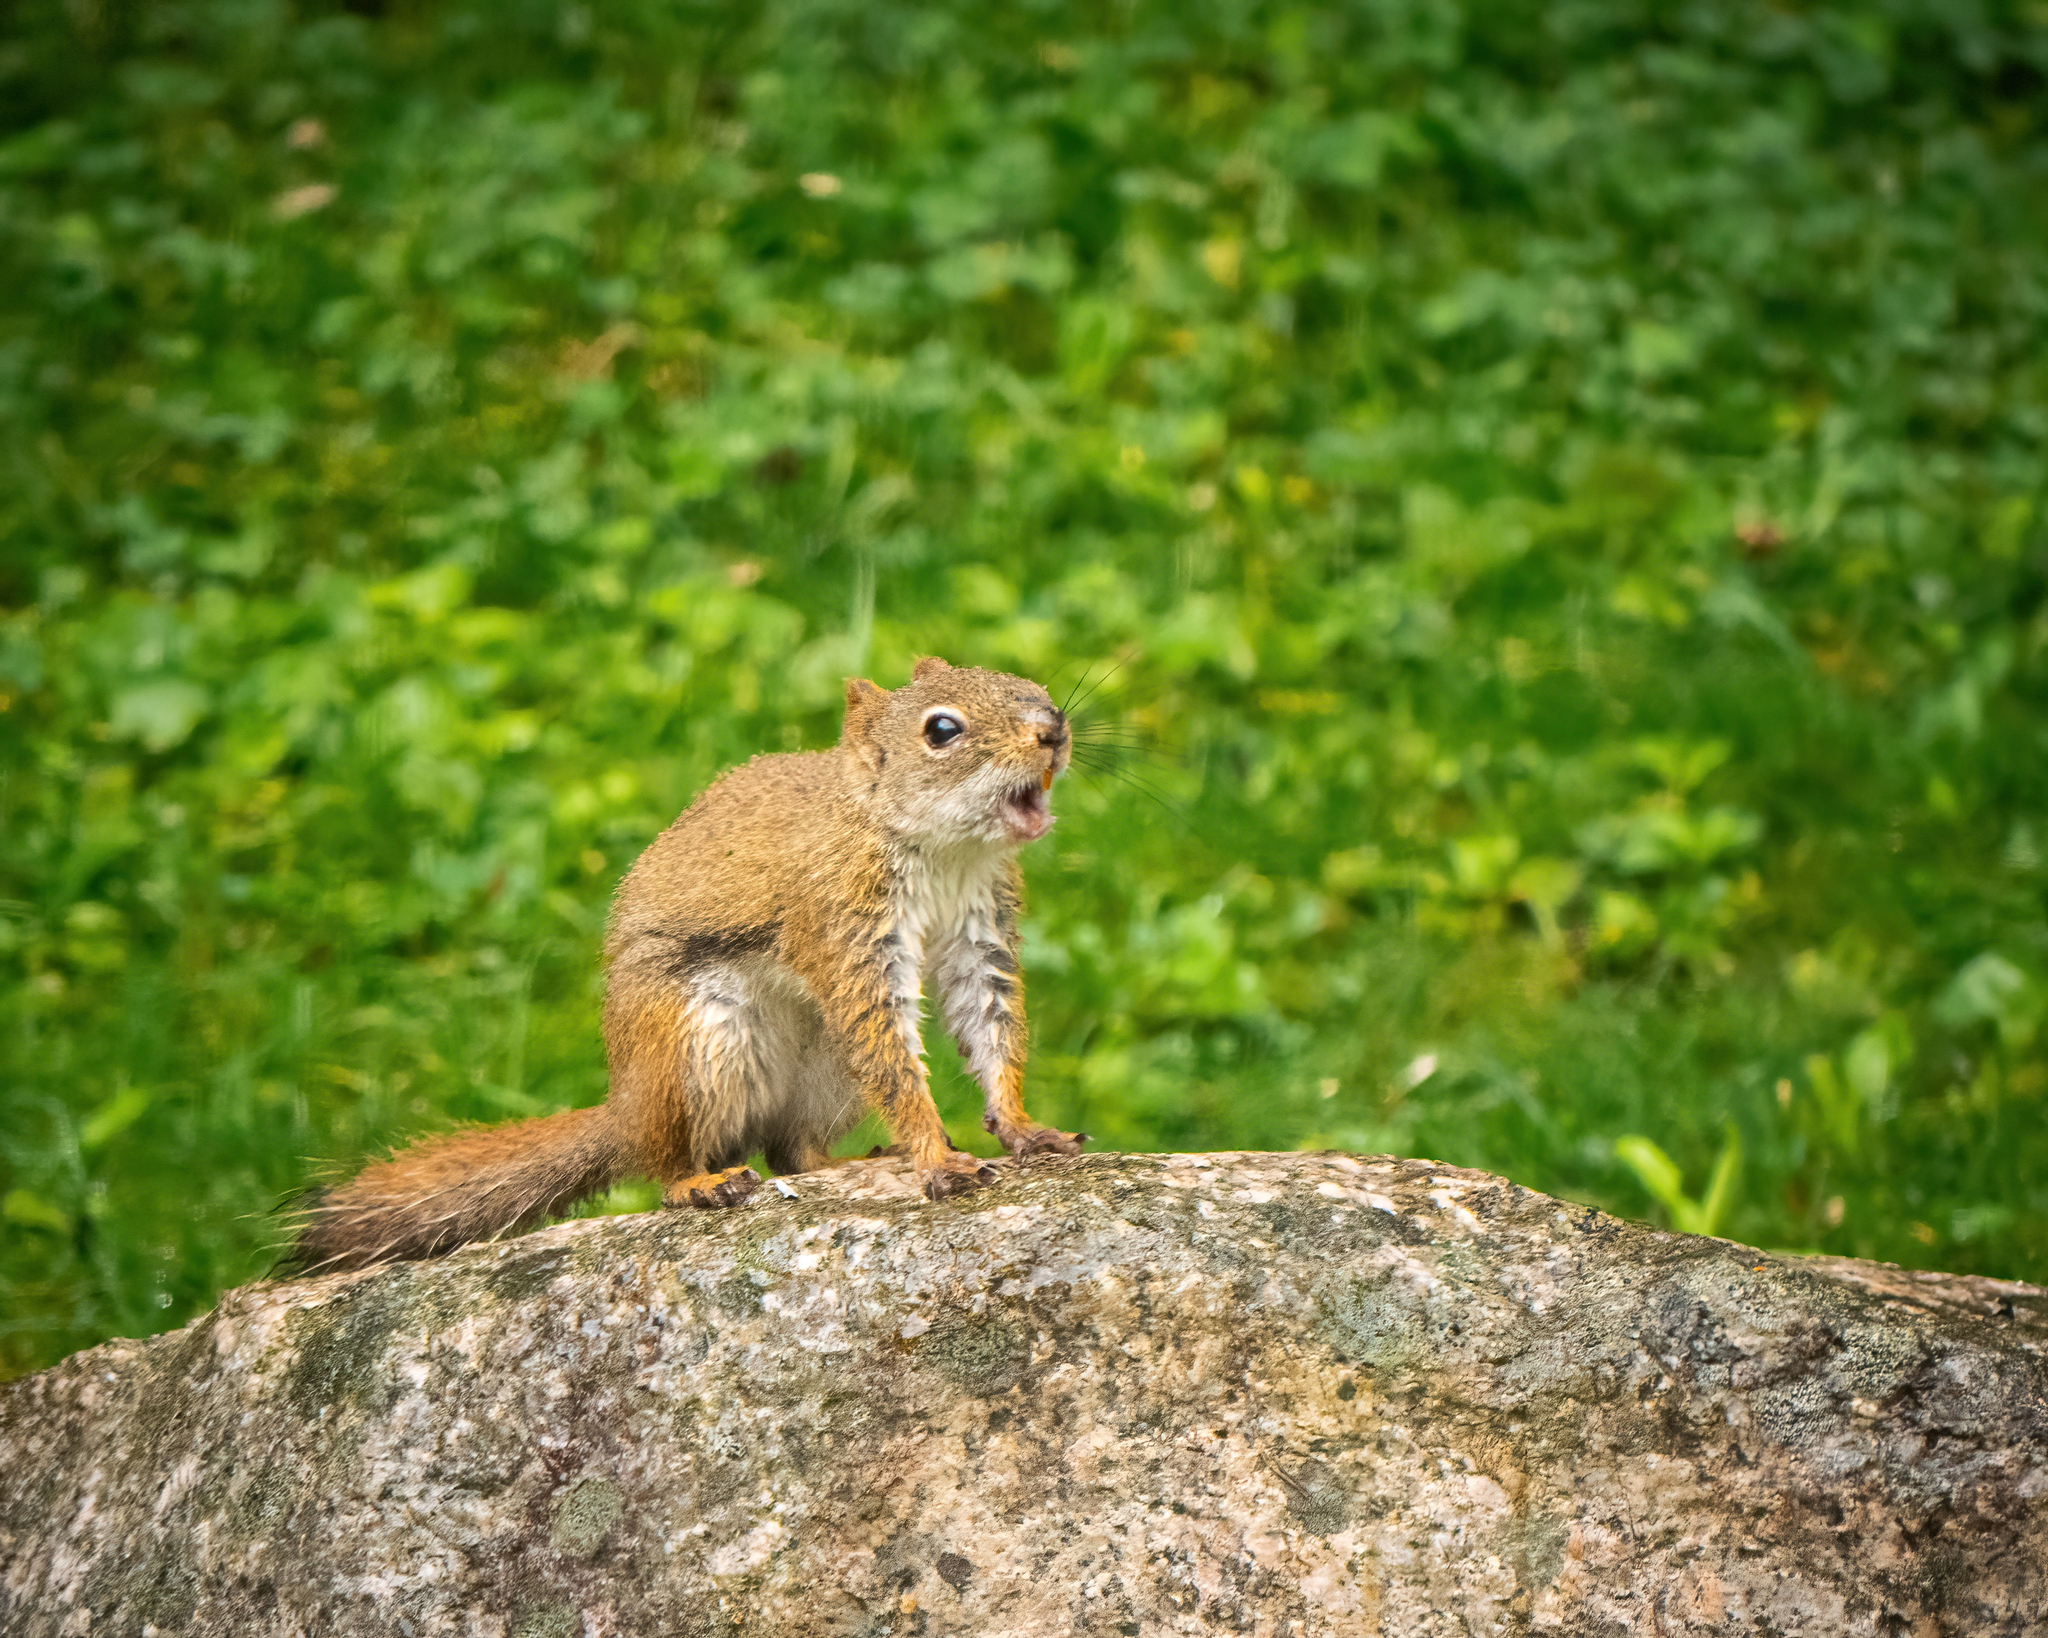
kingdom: Animalia
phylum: Chordata
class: Mammalia
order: Rodentia
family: Sciuridae
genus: Tamiasciurus
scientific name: Tamiasciurus hudsonicus
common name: Red squirrel
